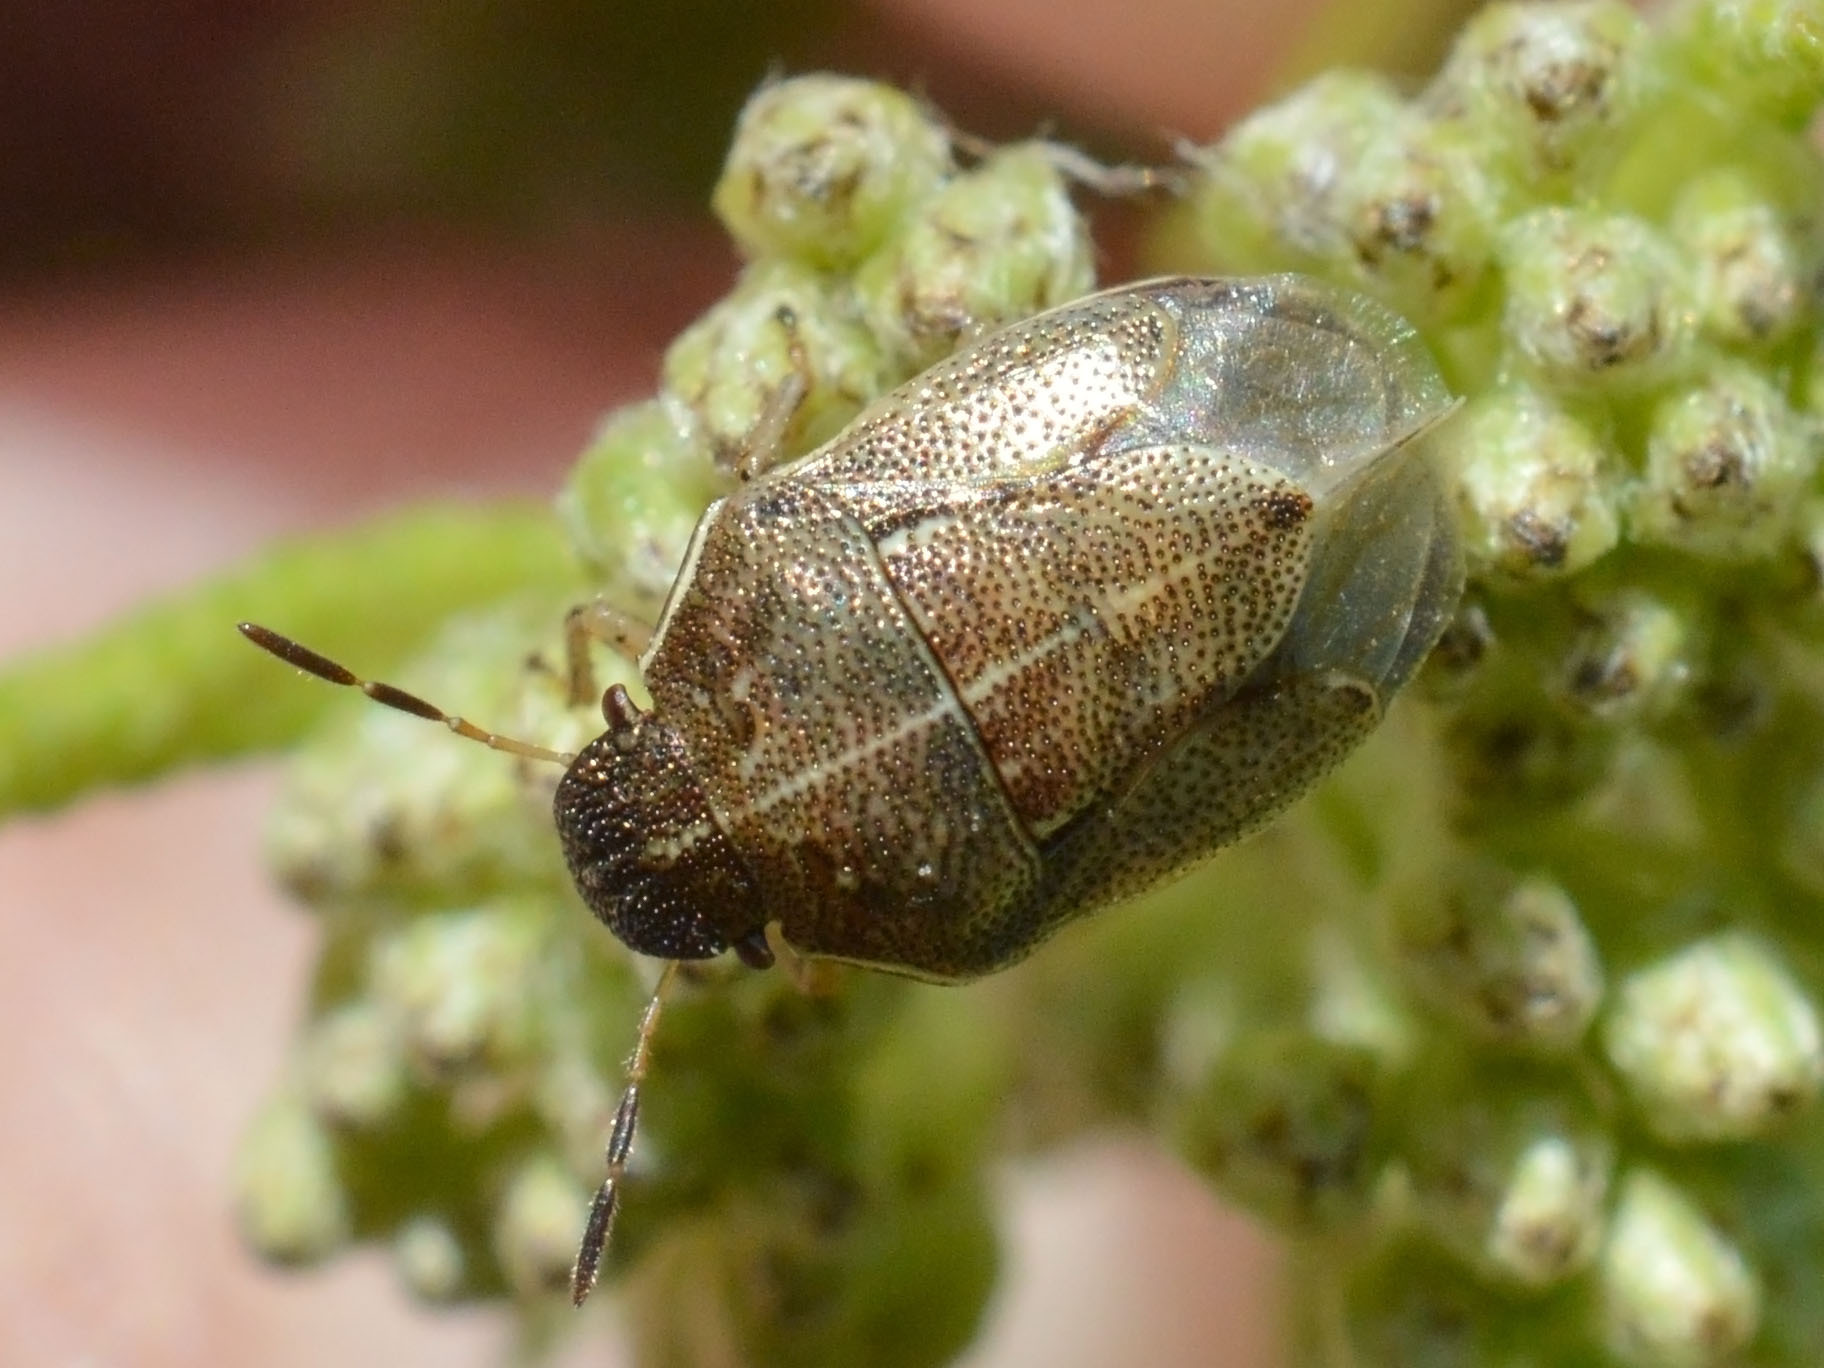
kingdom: Animalia
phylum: Arthropoda
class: Insecta
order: Hemiptera
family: Pentatomidae
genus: Neottiglossa
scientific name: Neottiglossa pusilla
